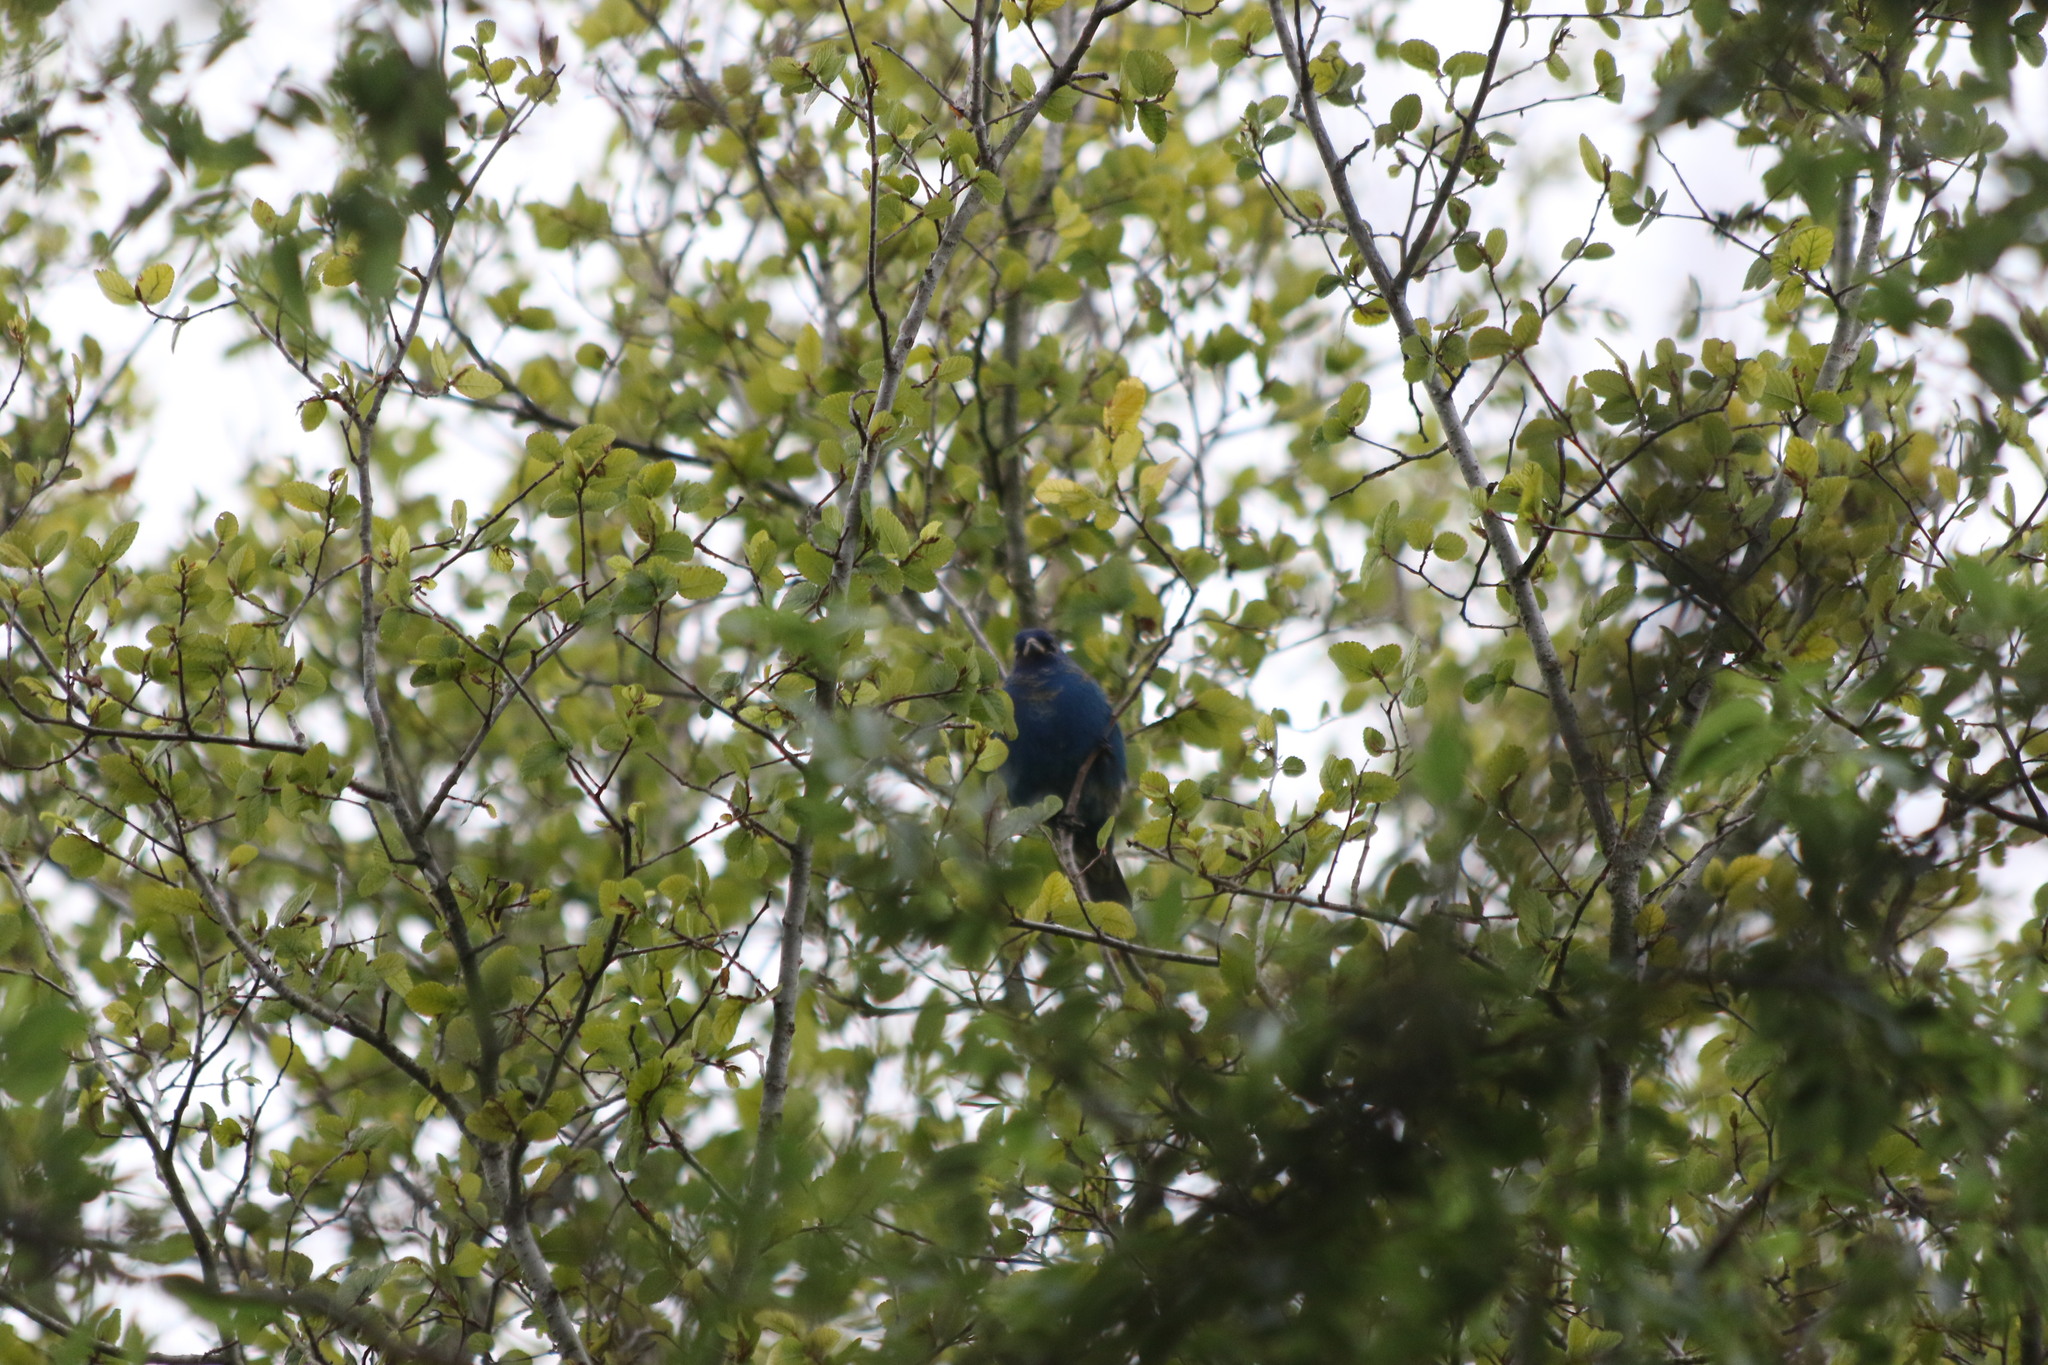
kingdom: Animalia
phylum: Chordata
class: Aves
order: Passeriformes
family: Cardinalidae
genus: Passerina
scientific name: Passerina cyanea
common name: Indigo bunting
